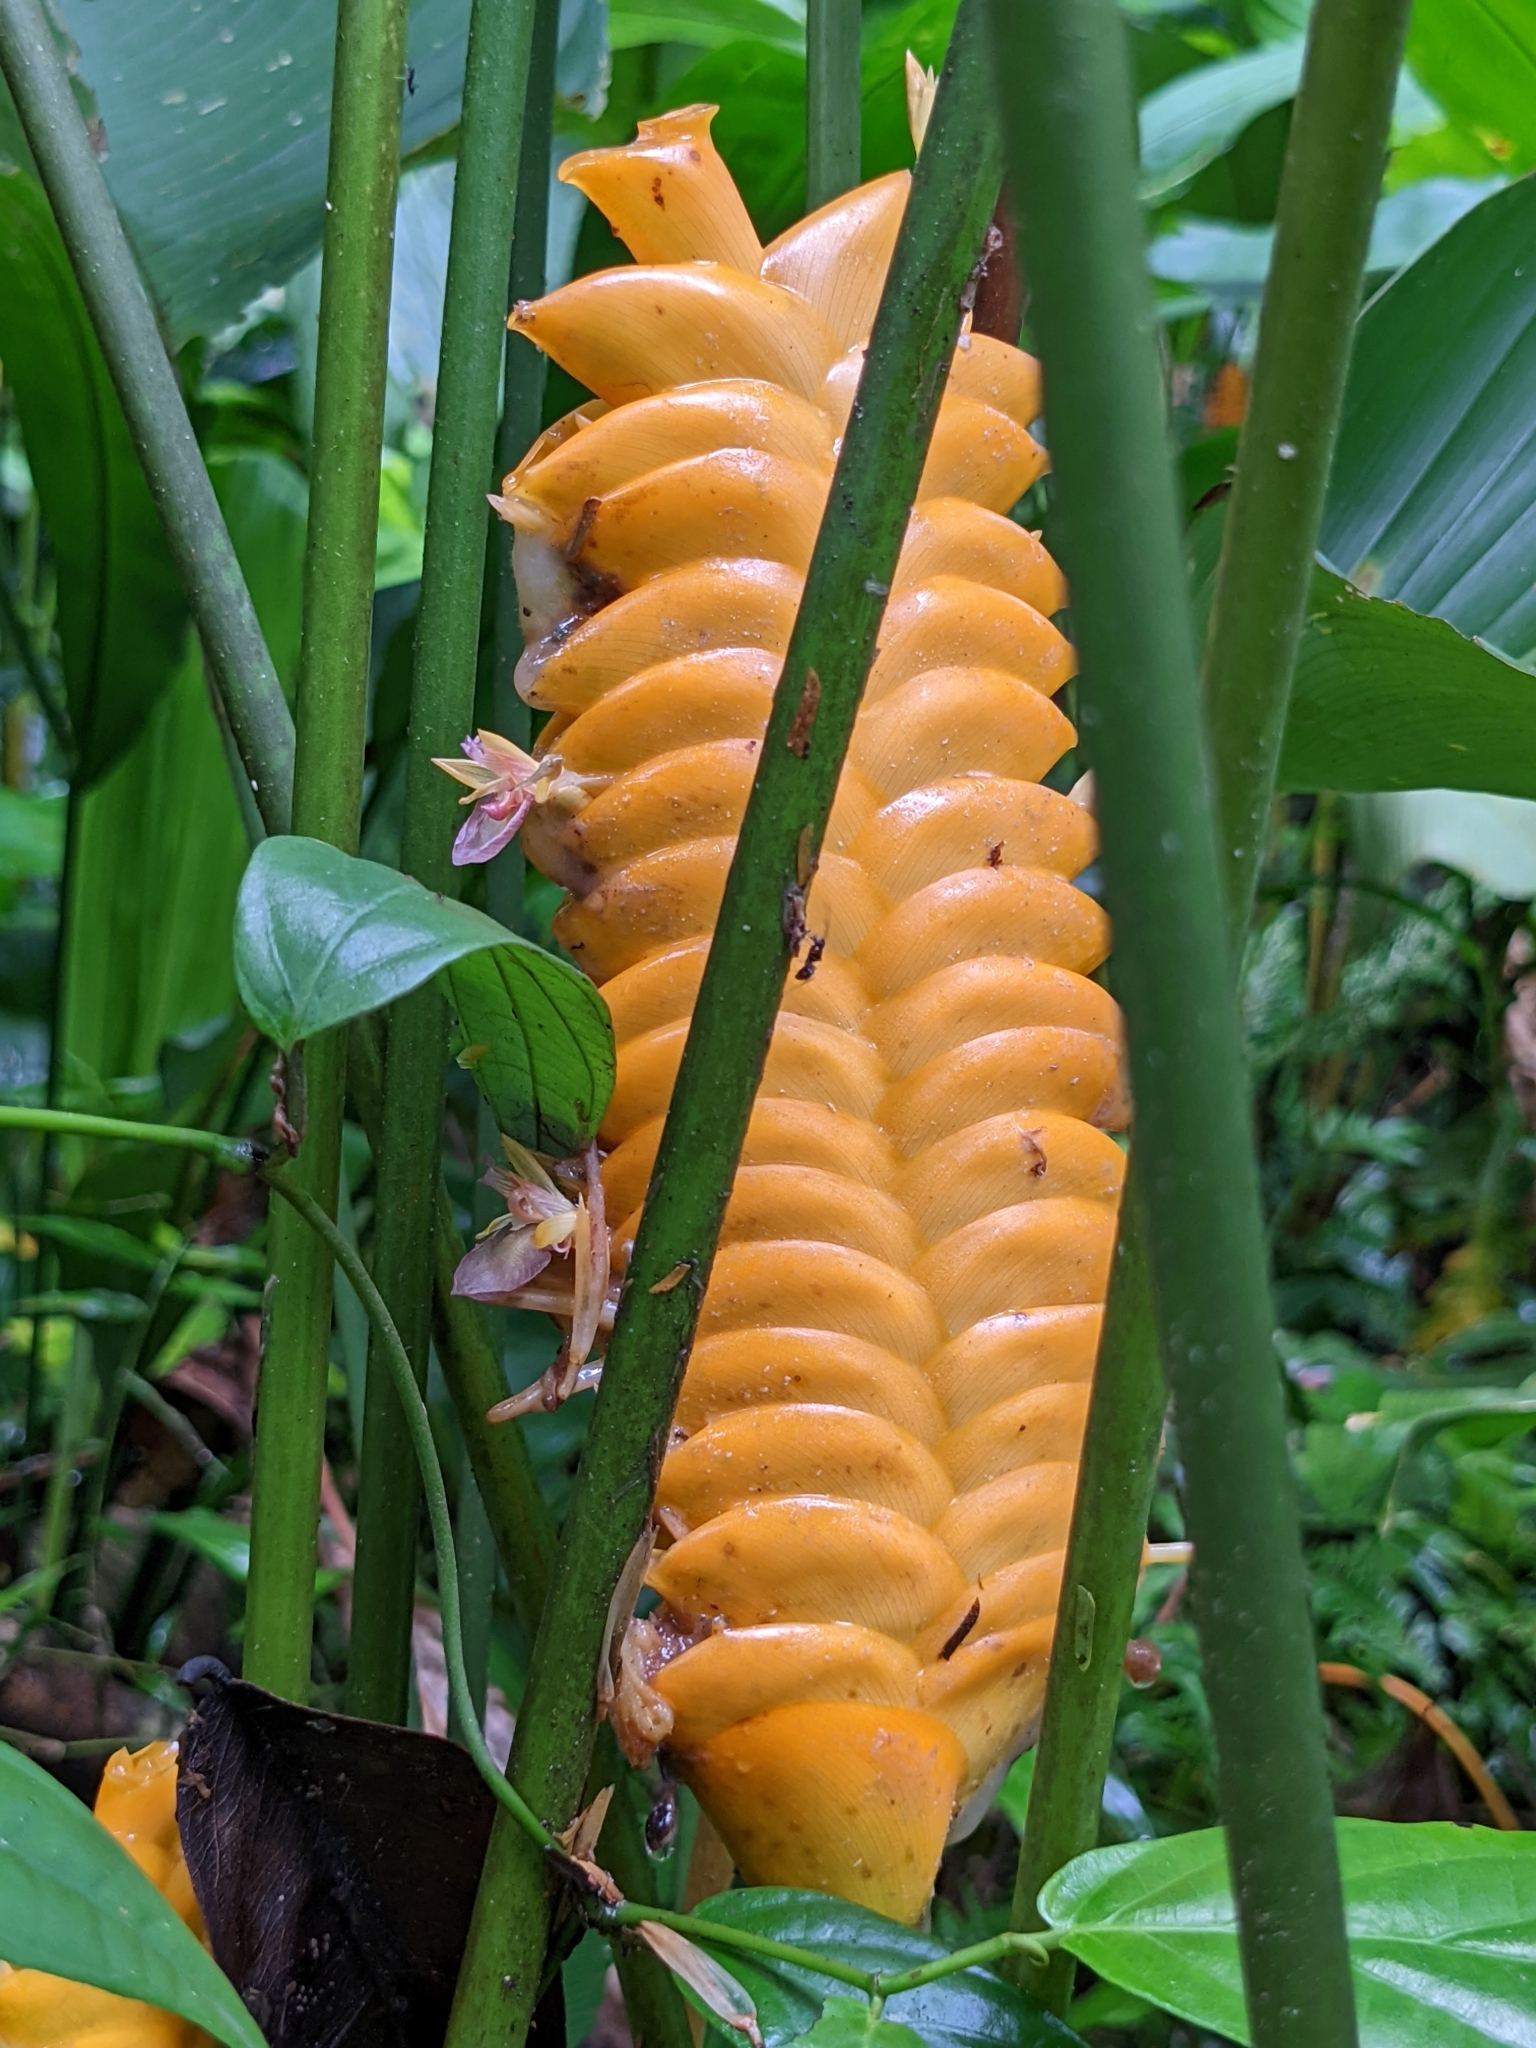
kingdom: Plantae
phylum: Tracheophyta
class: Liliopsida
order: Zingiberales
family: Marantaceae
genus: Calathea
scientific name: Calathea crotalifera
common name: Rattlesnake plant
